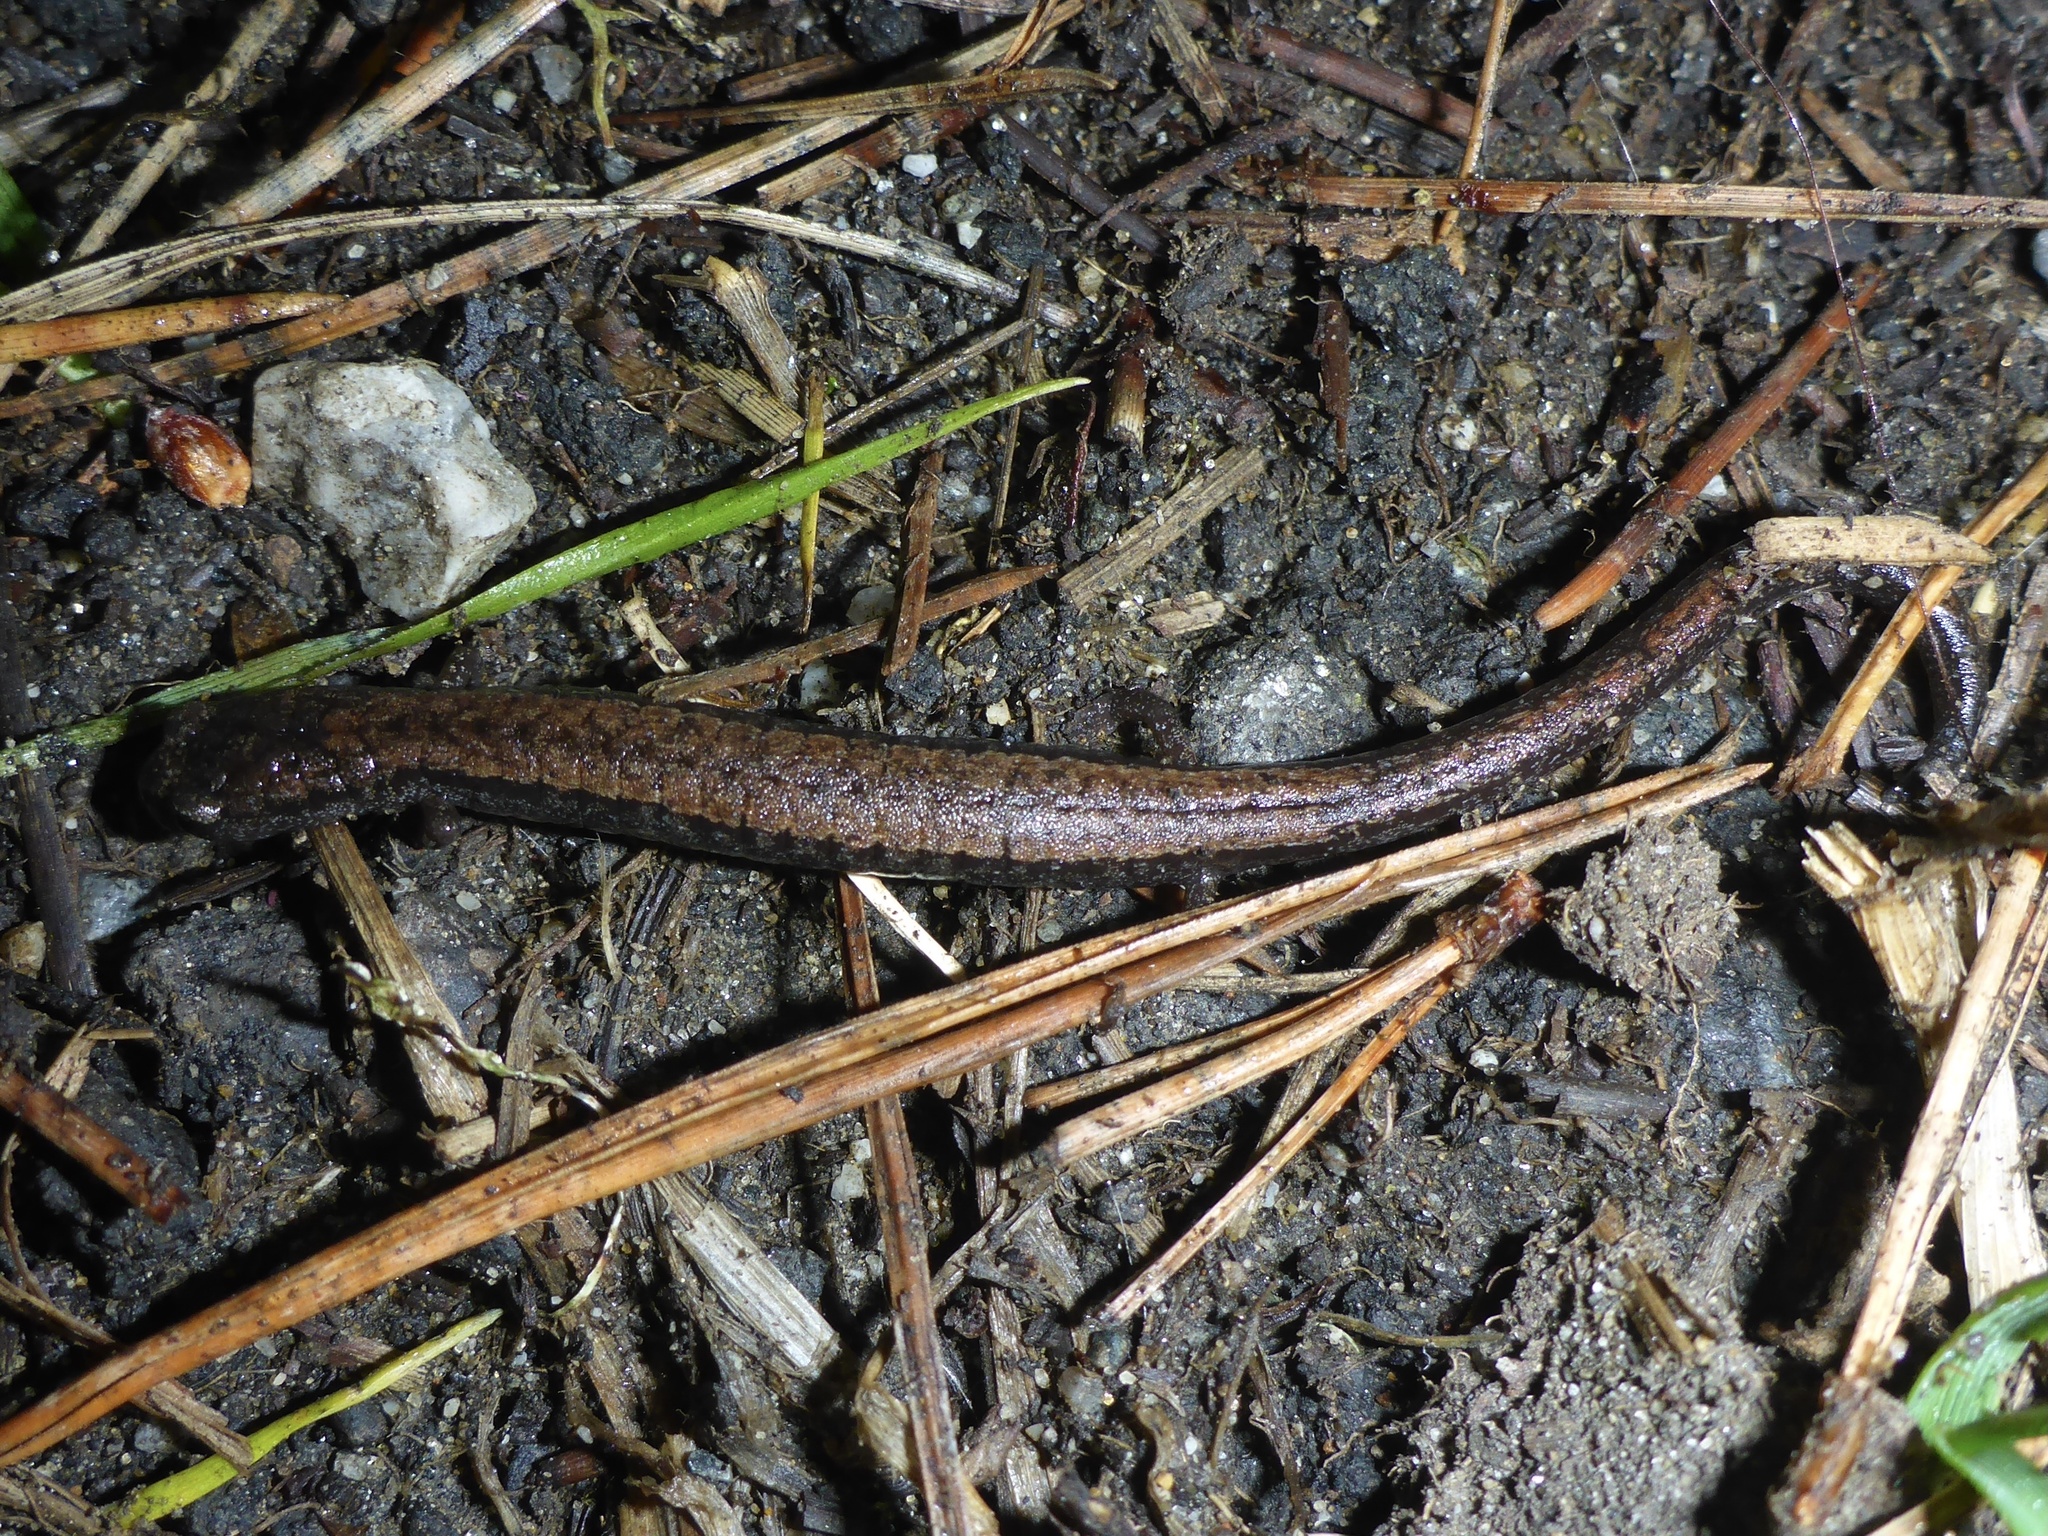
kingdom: Animalia
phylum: Chordata
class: Amphibia
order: Caudata
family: Plethodontidae
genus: Batrachoseps
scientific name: Batrachoseps attenuatus
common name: California slender salamander
